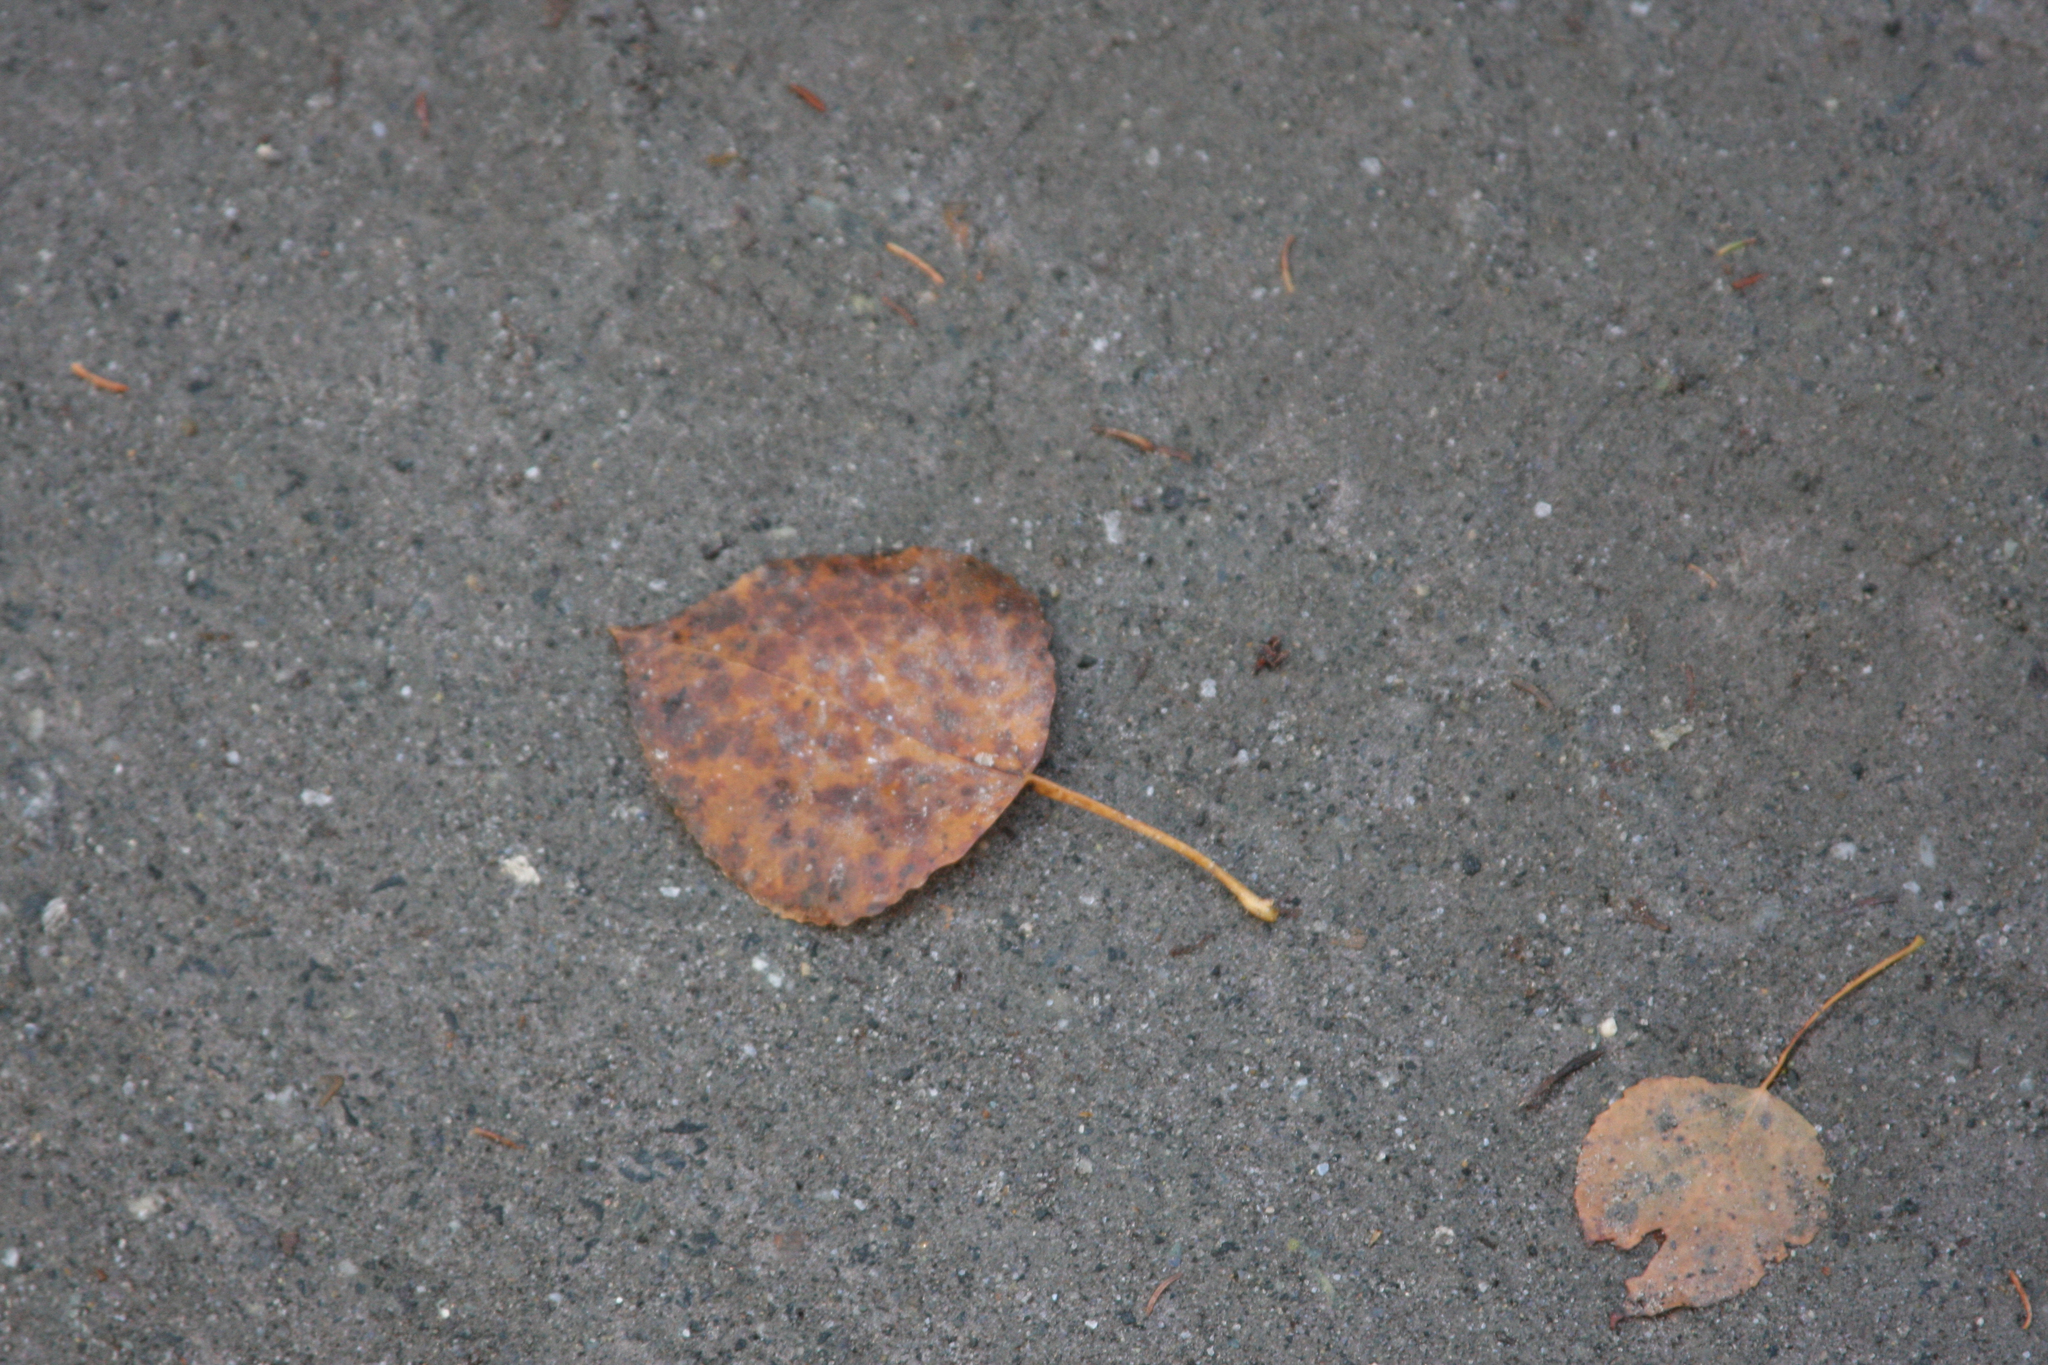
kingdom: Plantae
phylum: Tracheophyta
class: Magnoliopsida
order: Malpighiales
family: Salicaceae
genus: Populus
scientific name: Populus tremuloides
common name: Quaking aspen
